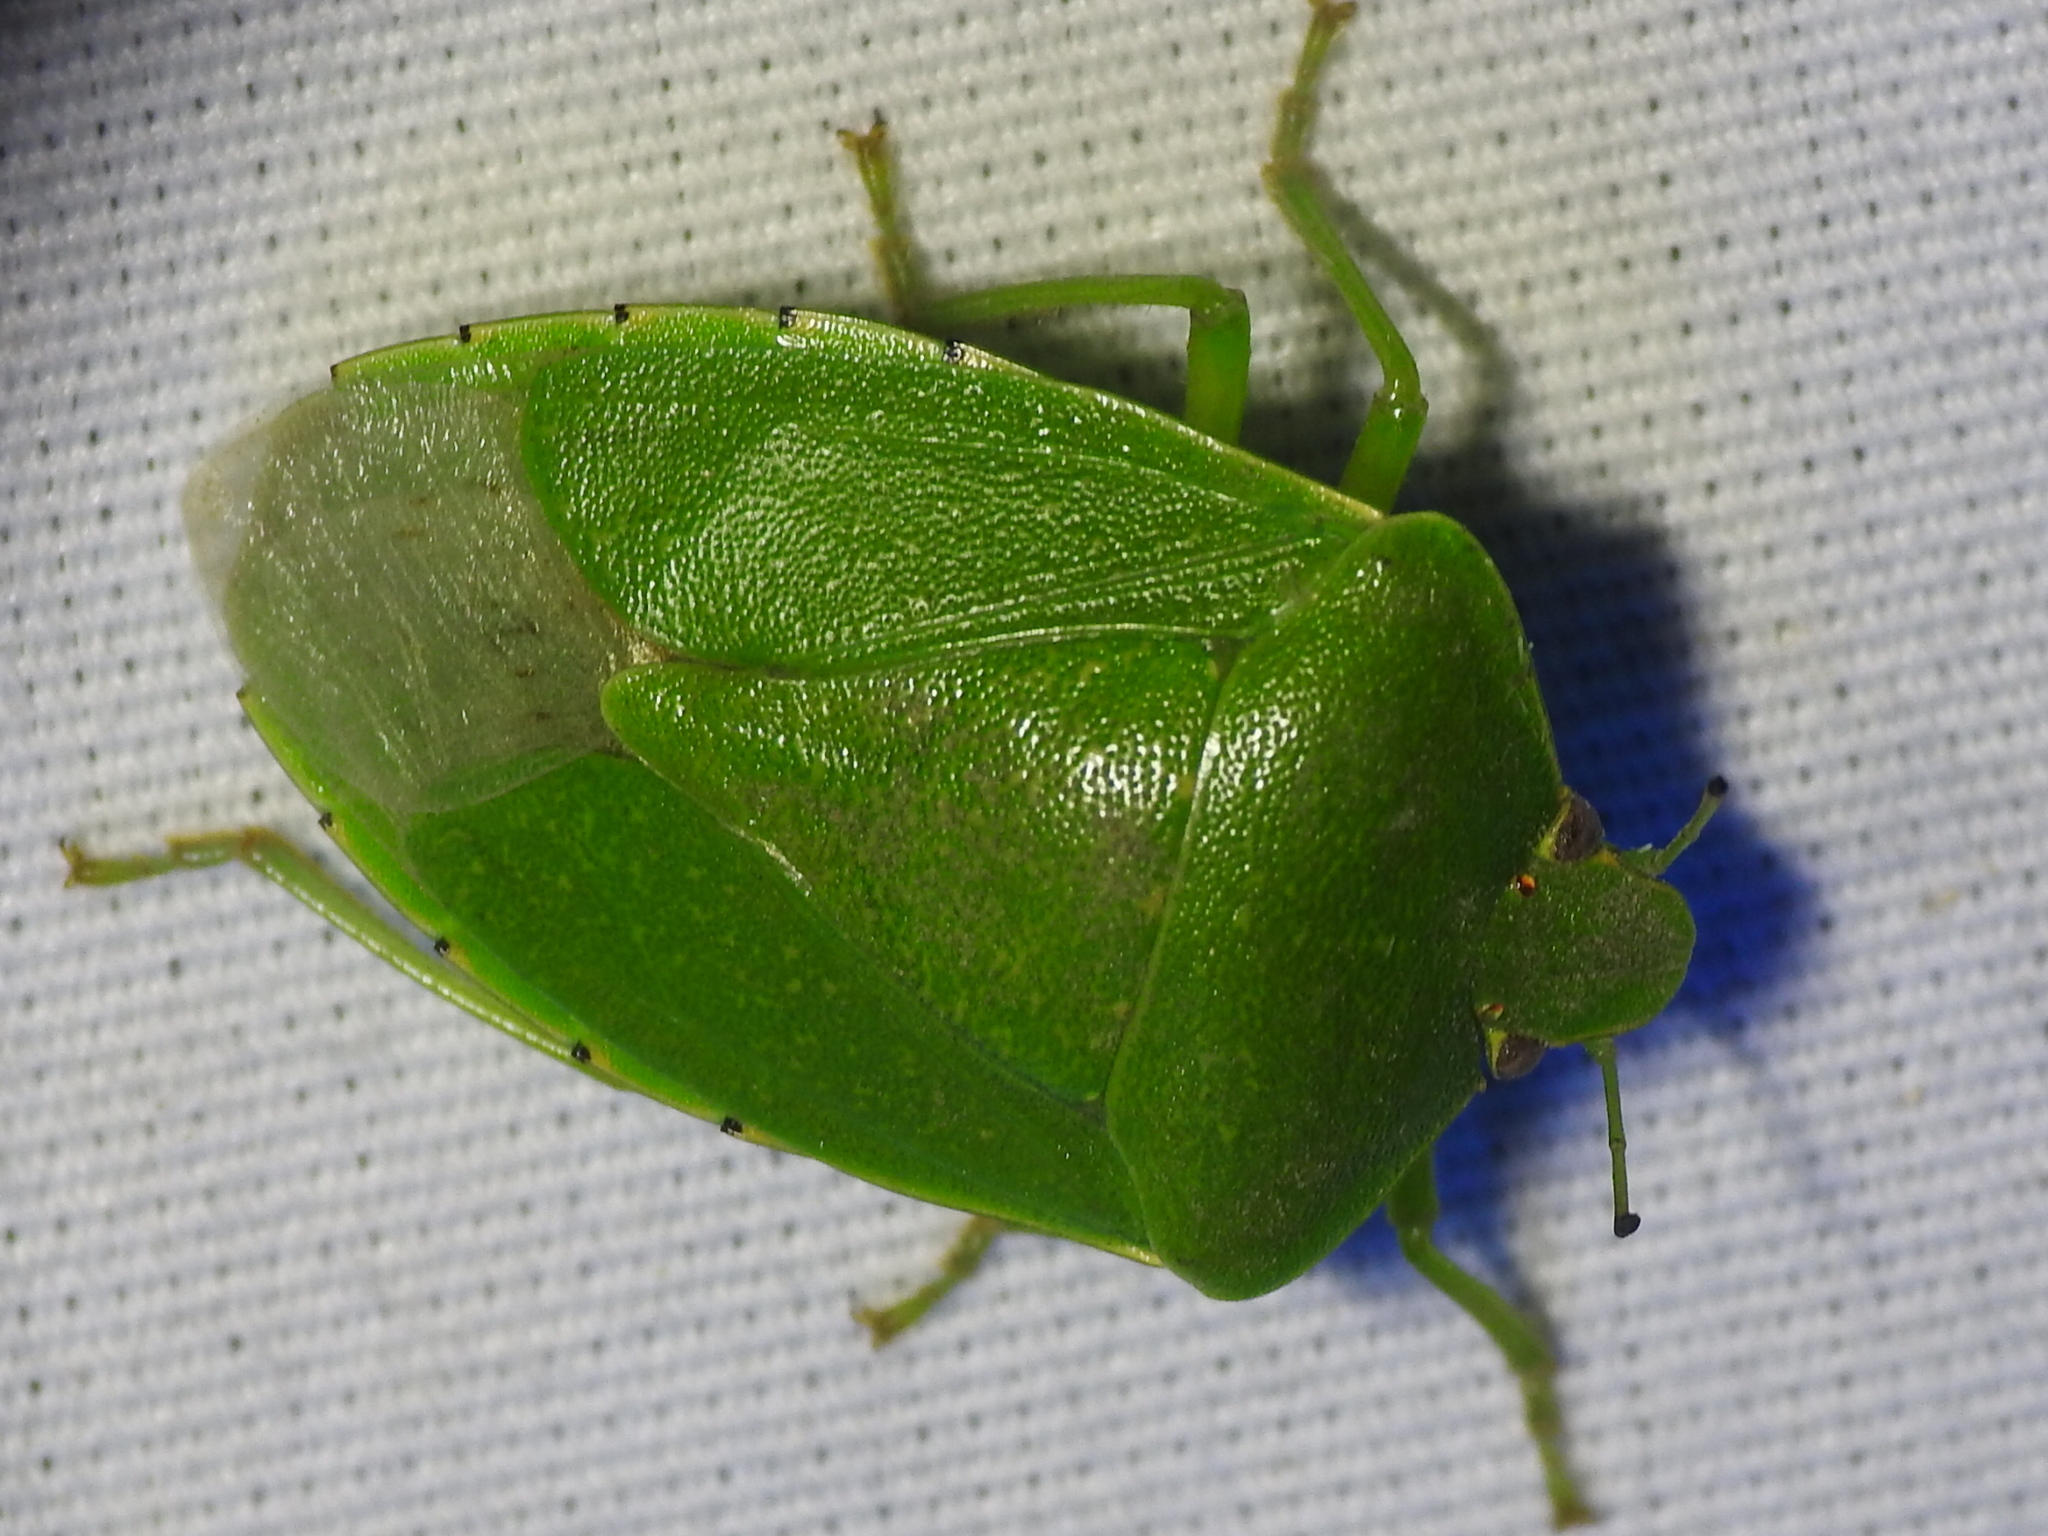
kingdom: Animalia
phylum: Arthropoda
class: Insecta
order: Hemiptera
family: Pentatomidae
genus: Chinavia
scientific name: Chinavia hilaris
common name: Green stink bug
